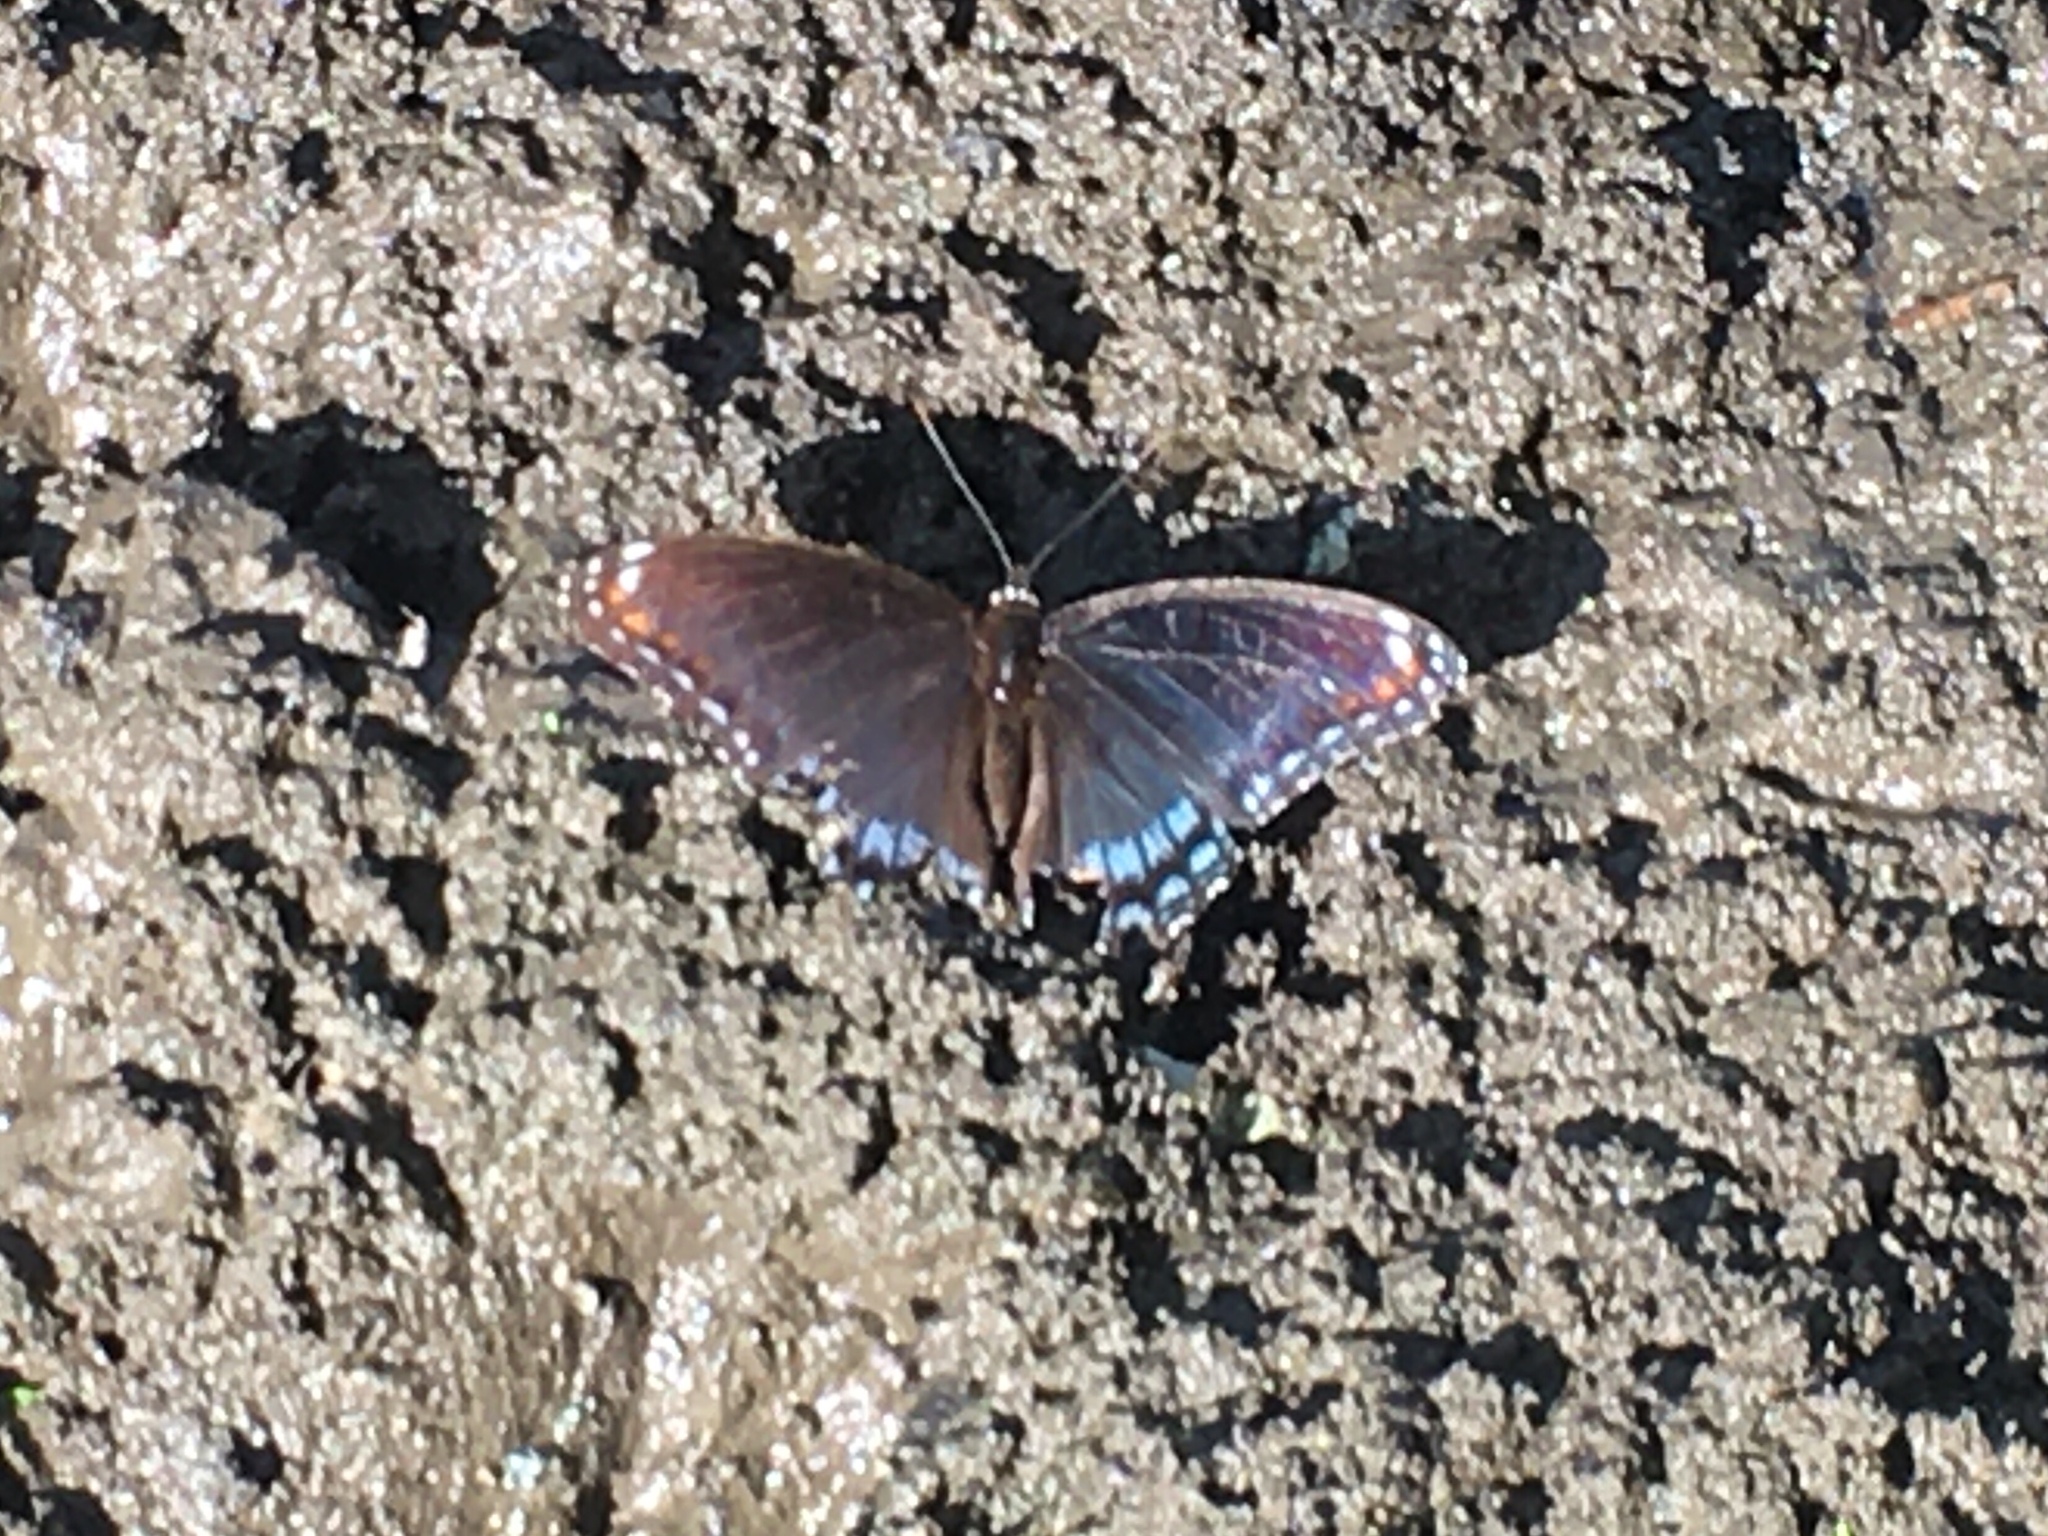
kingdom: Animalia
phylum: Arthropoda
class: Insecta
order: Lepidoptera
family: Nymphalidae
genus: Limenitis
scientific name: Limenitis astyanax
